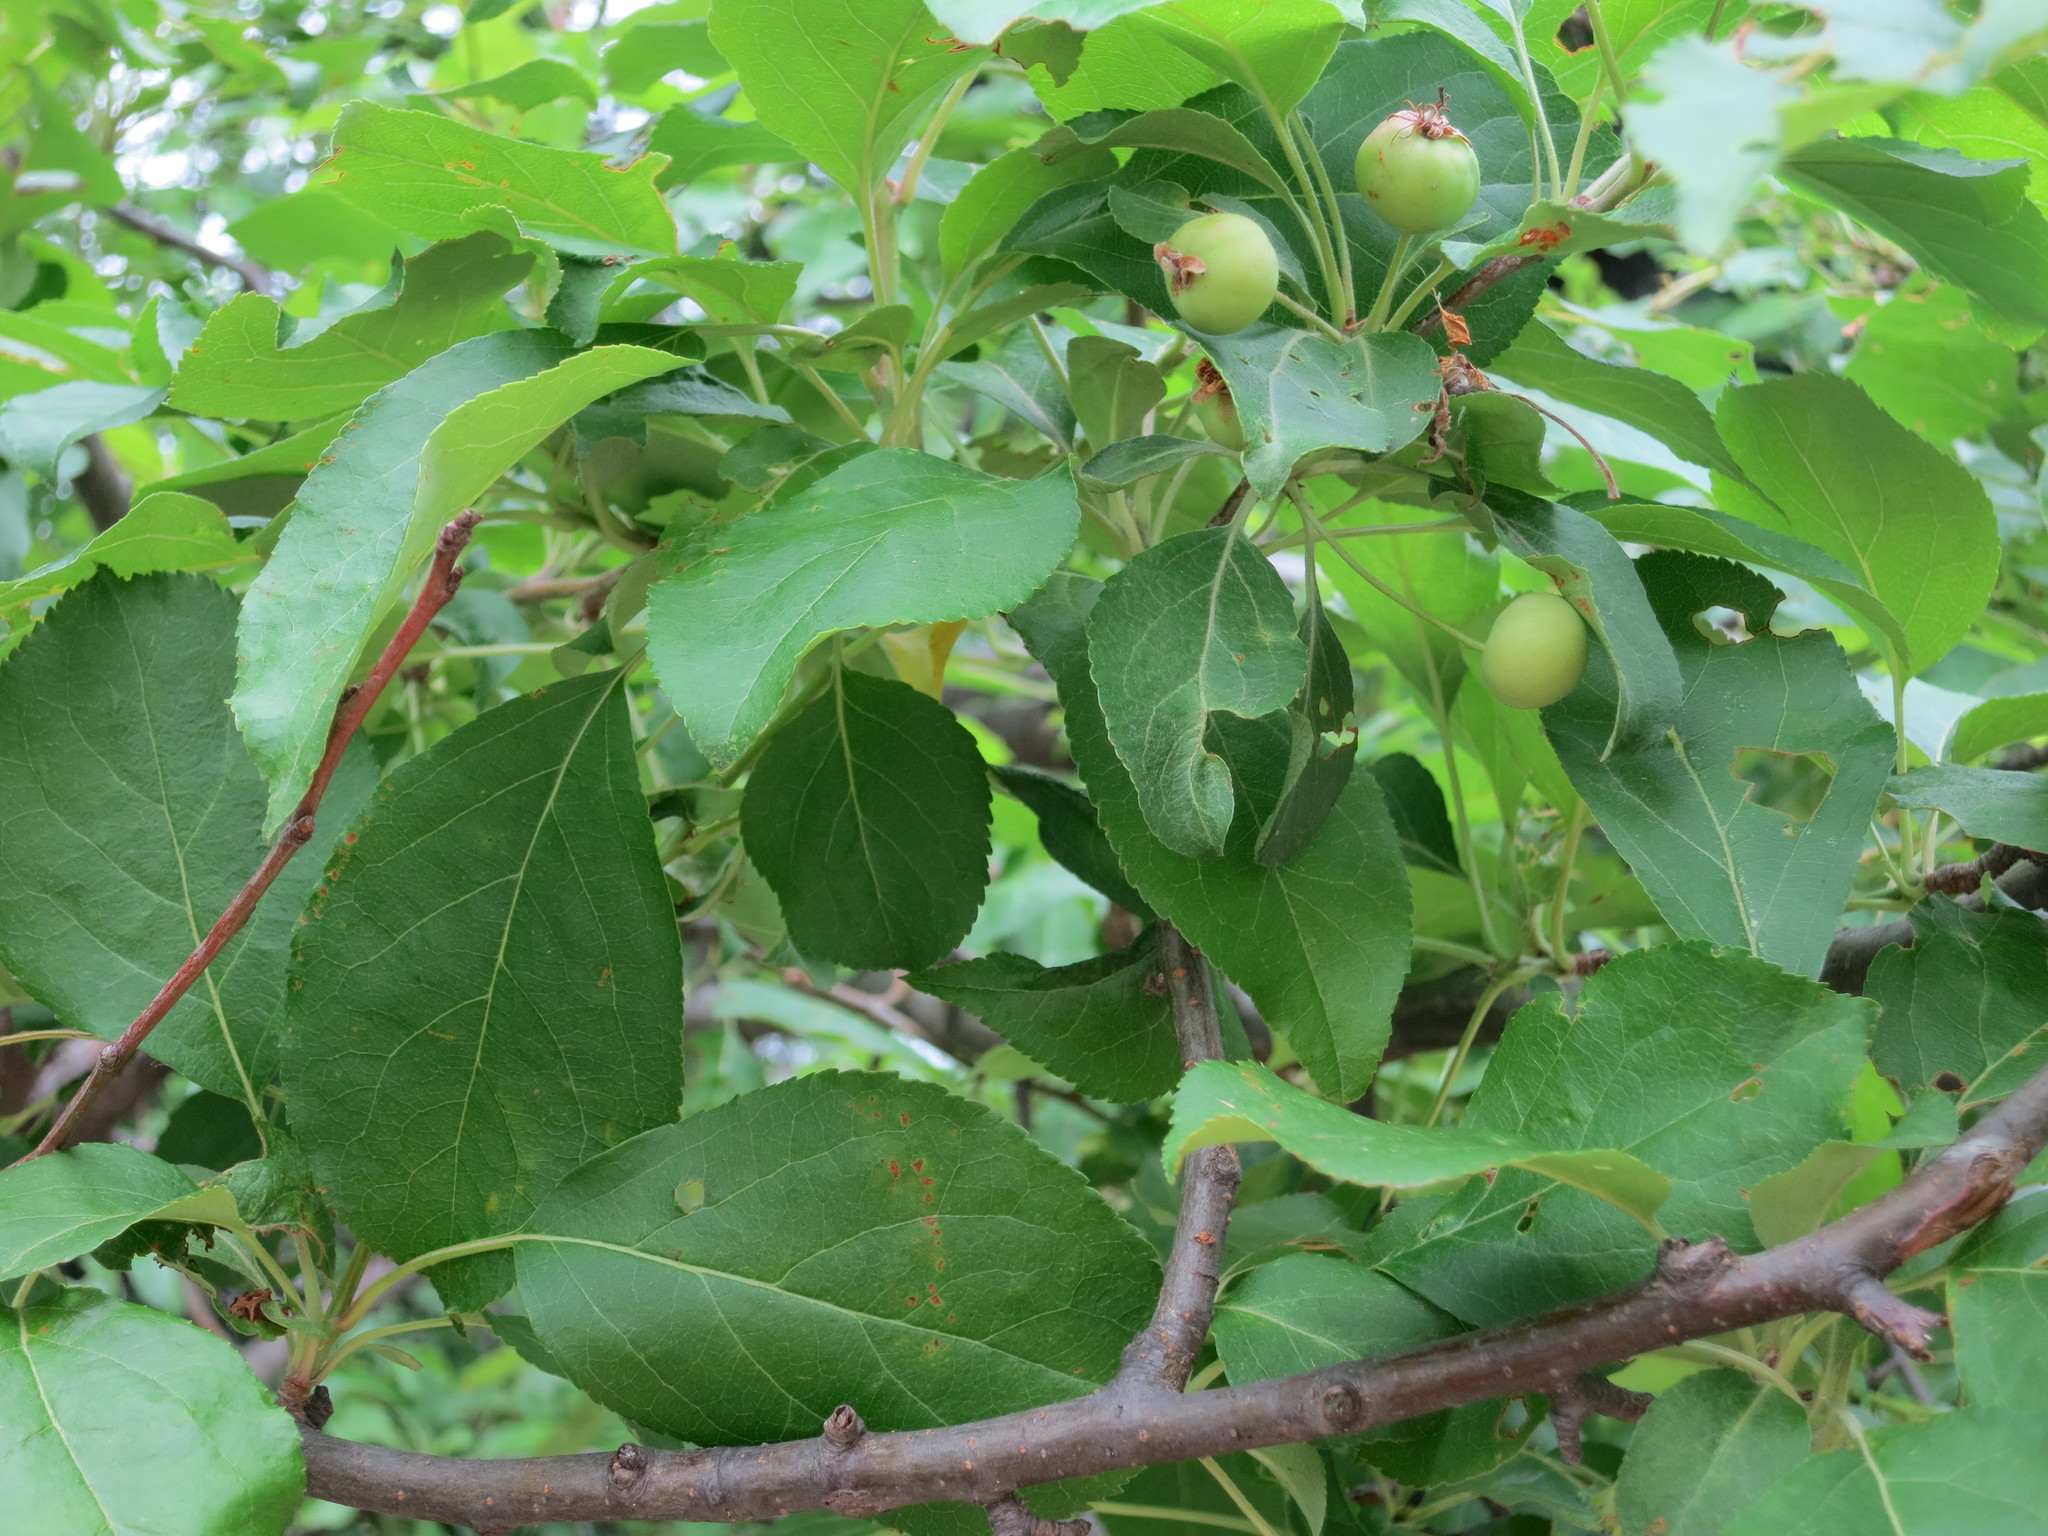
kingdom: Plantae
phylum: Tracheophyta
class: Magnoliopsida
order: Rosales
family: Rosaceae
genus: Malus
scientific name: Malus baccata
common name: Siberian crab
